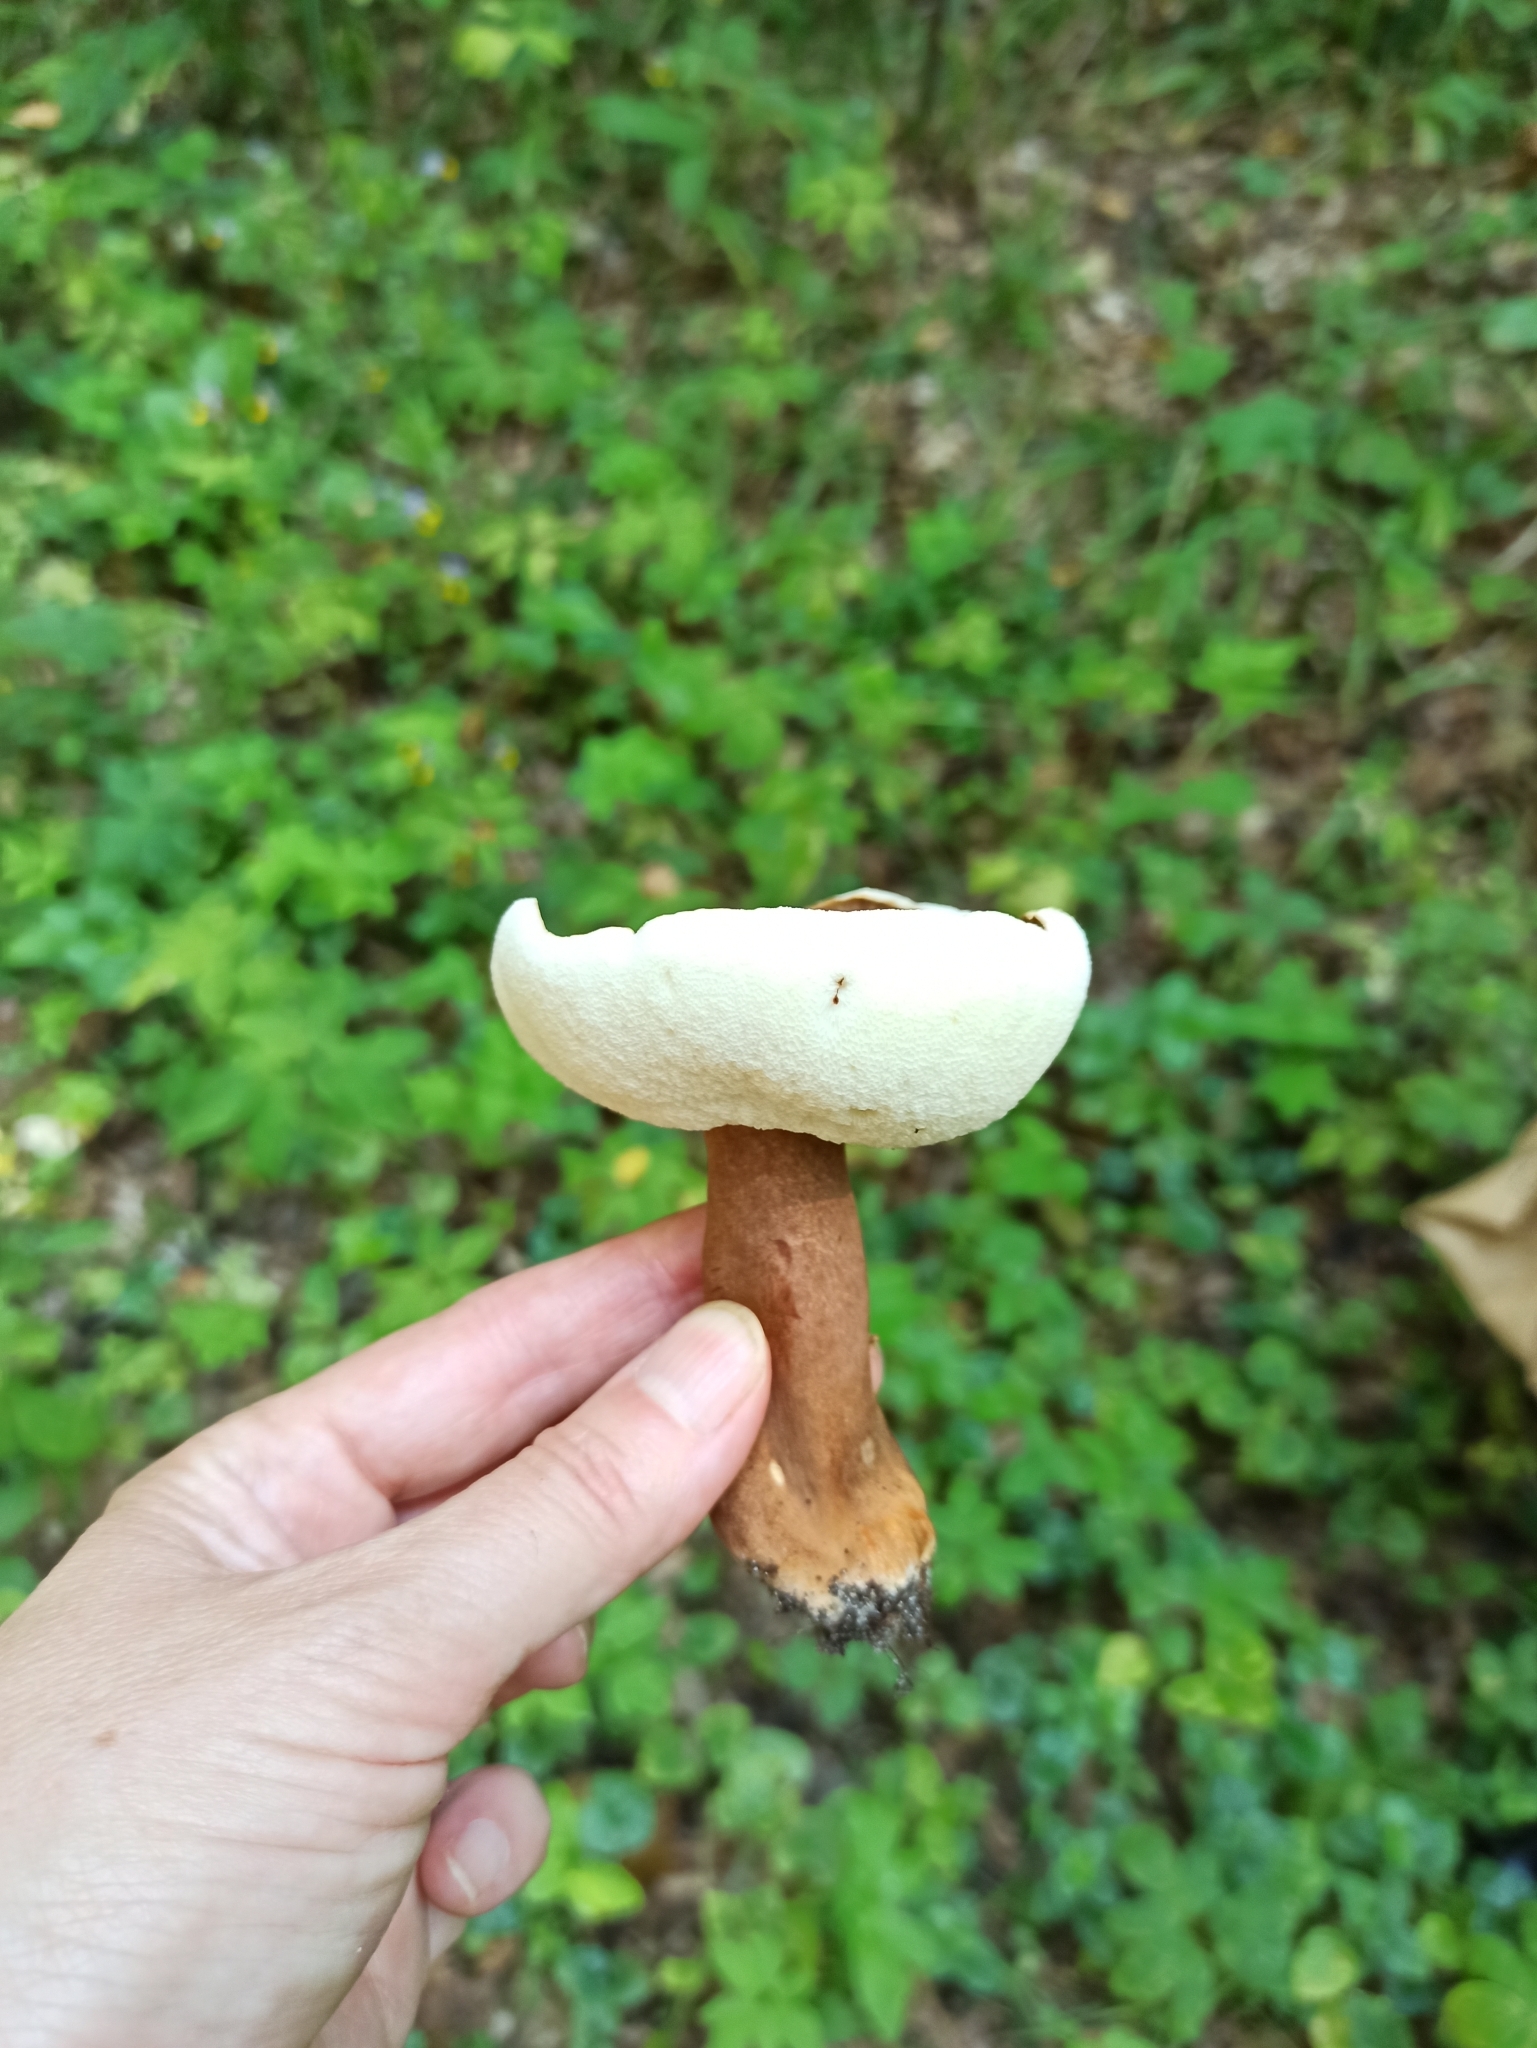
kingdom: Fungi
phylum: Basidiomycota
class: Agaricomycetes
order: Boletales
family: Gyroporaceae
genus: Gyroporus
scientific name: Gyroporus castaneus
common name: Chestnut bolete
